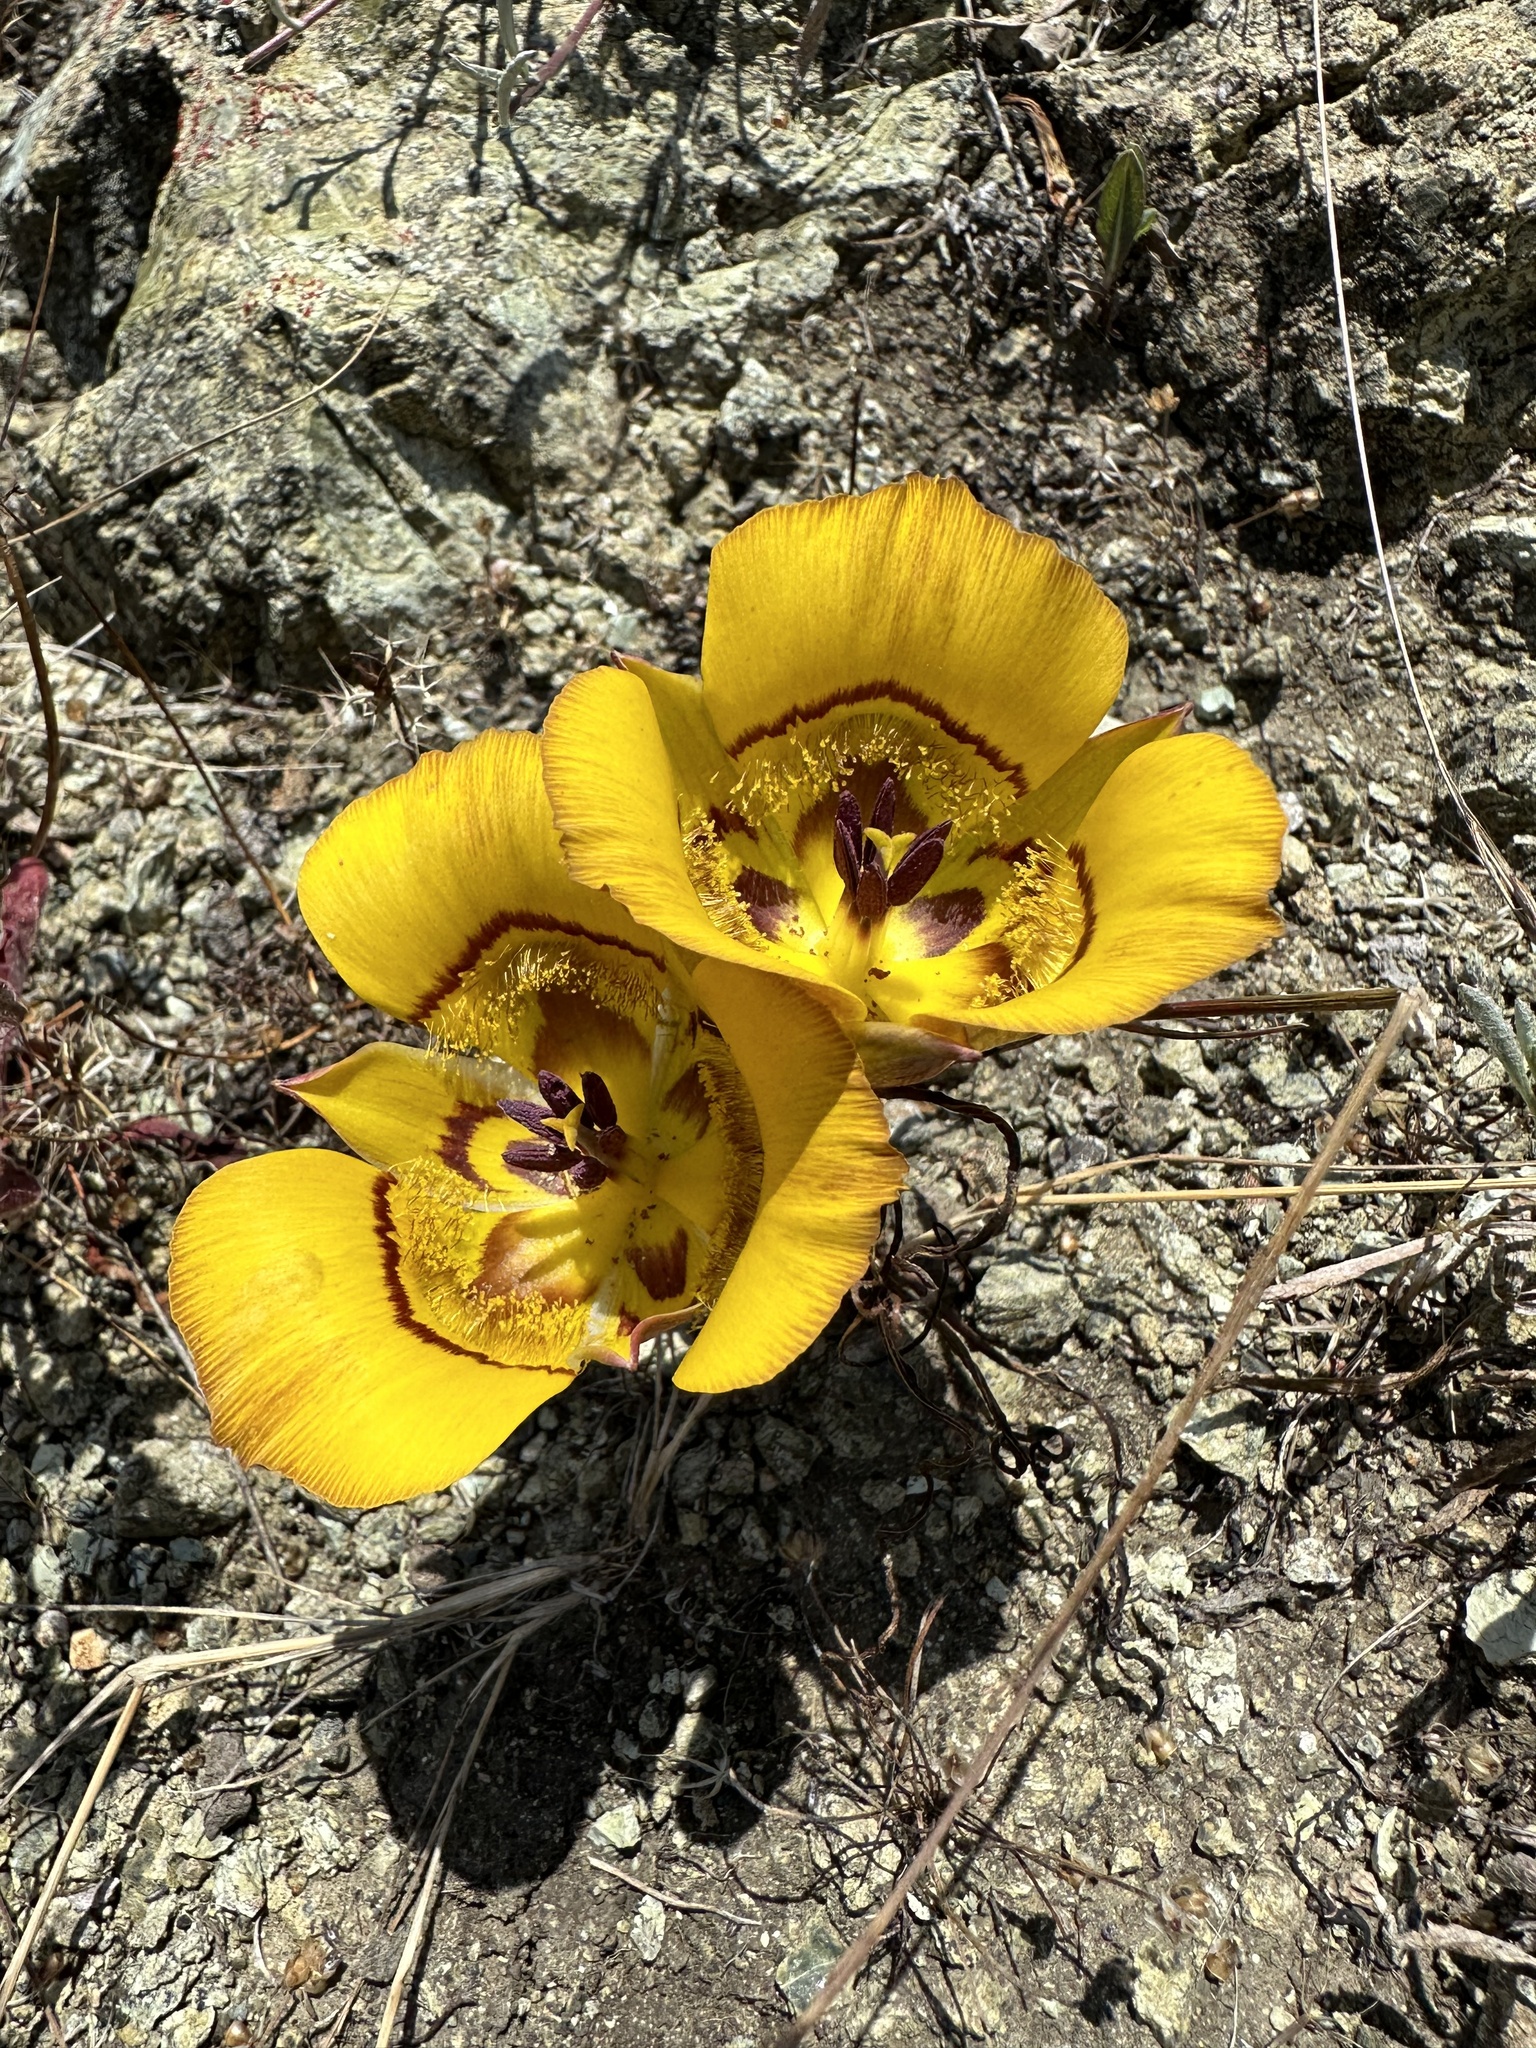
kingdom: Plantae
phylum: Tracheophyta
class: Liliopsida
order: Liliales
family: Liliaceae
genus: Calochortus
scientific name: Calochortus clavatus
